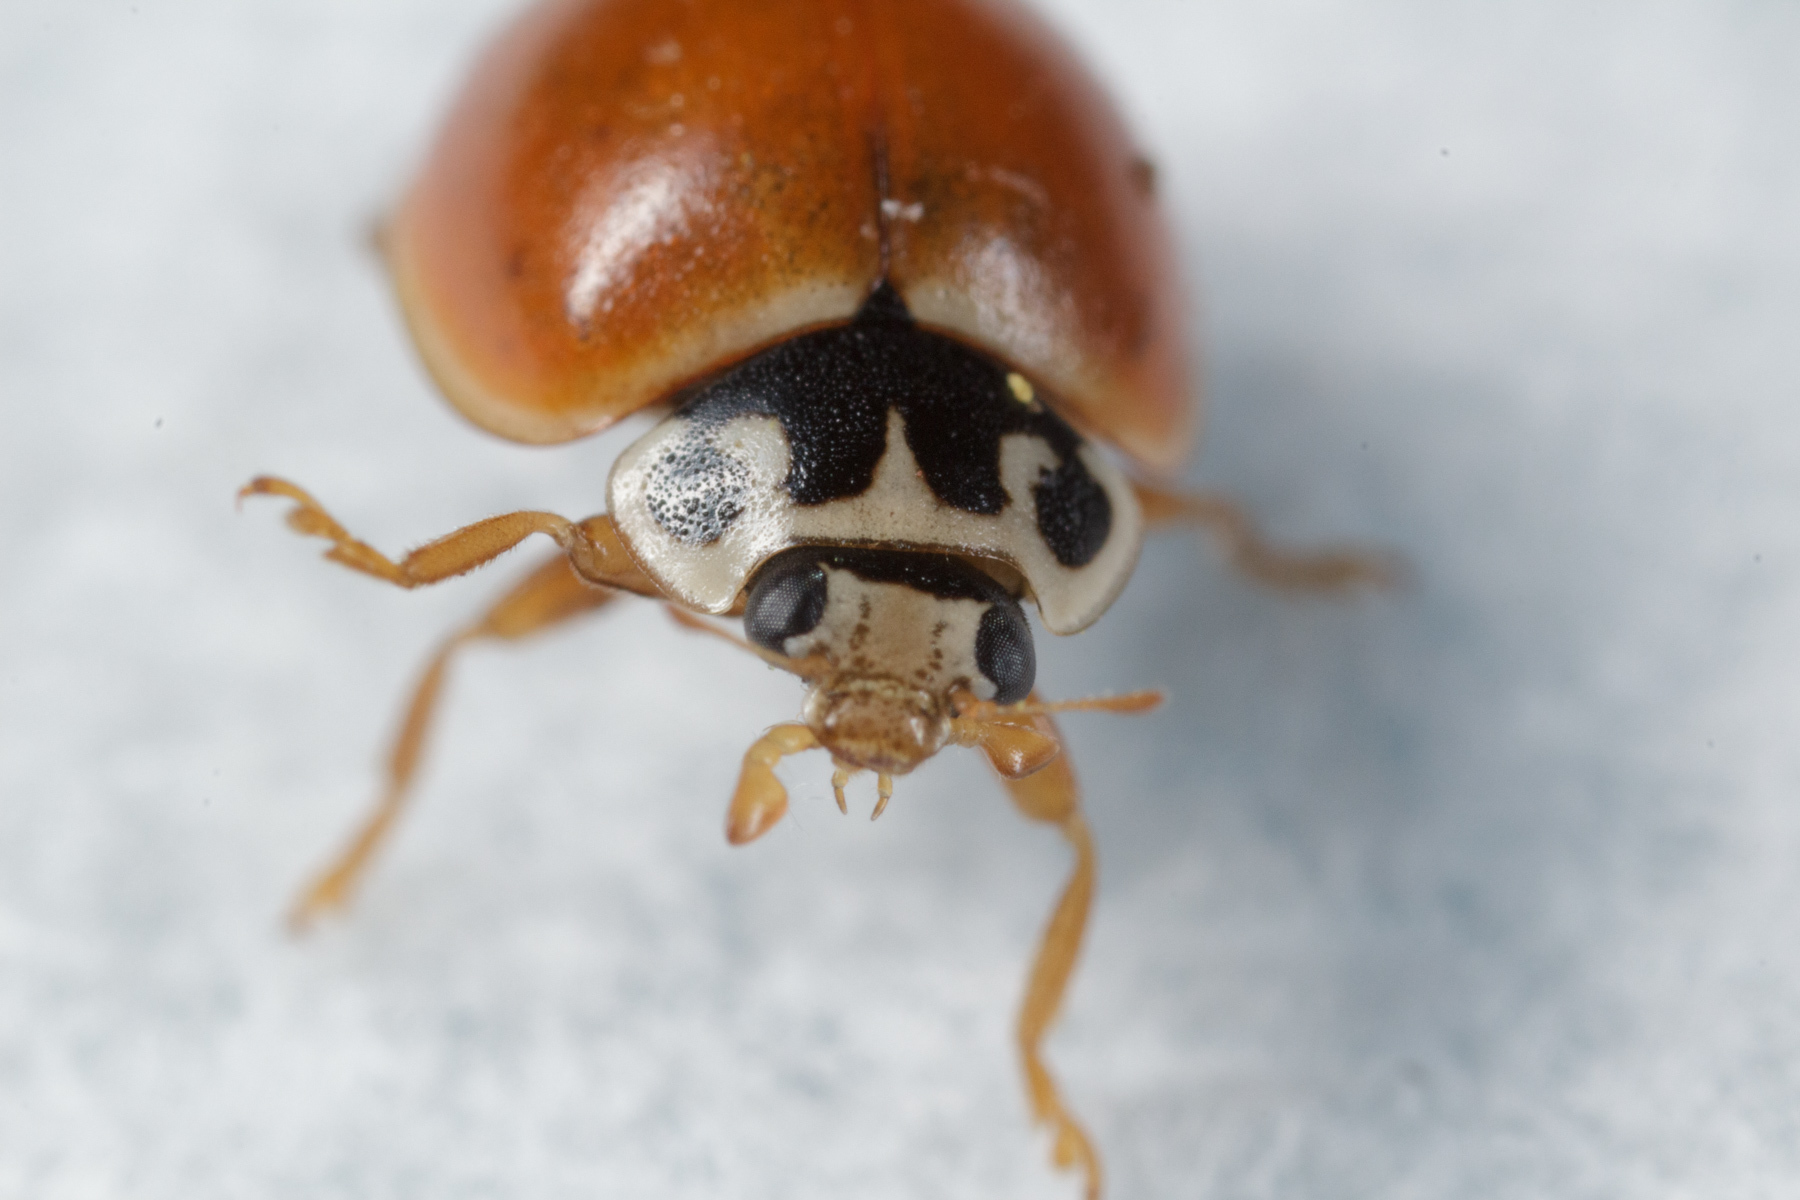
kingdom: Animalia
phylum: Arthropoda
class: Insecta
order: Coleoptera
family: Coccinellidae
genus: Cycloneda
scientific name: Cycloneda munda
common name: Polished lady beetle
